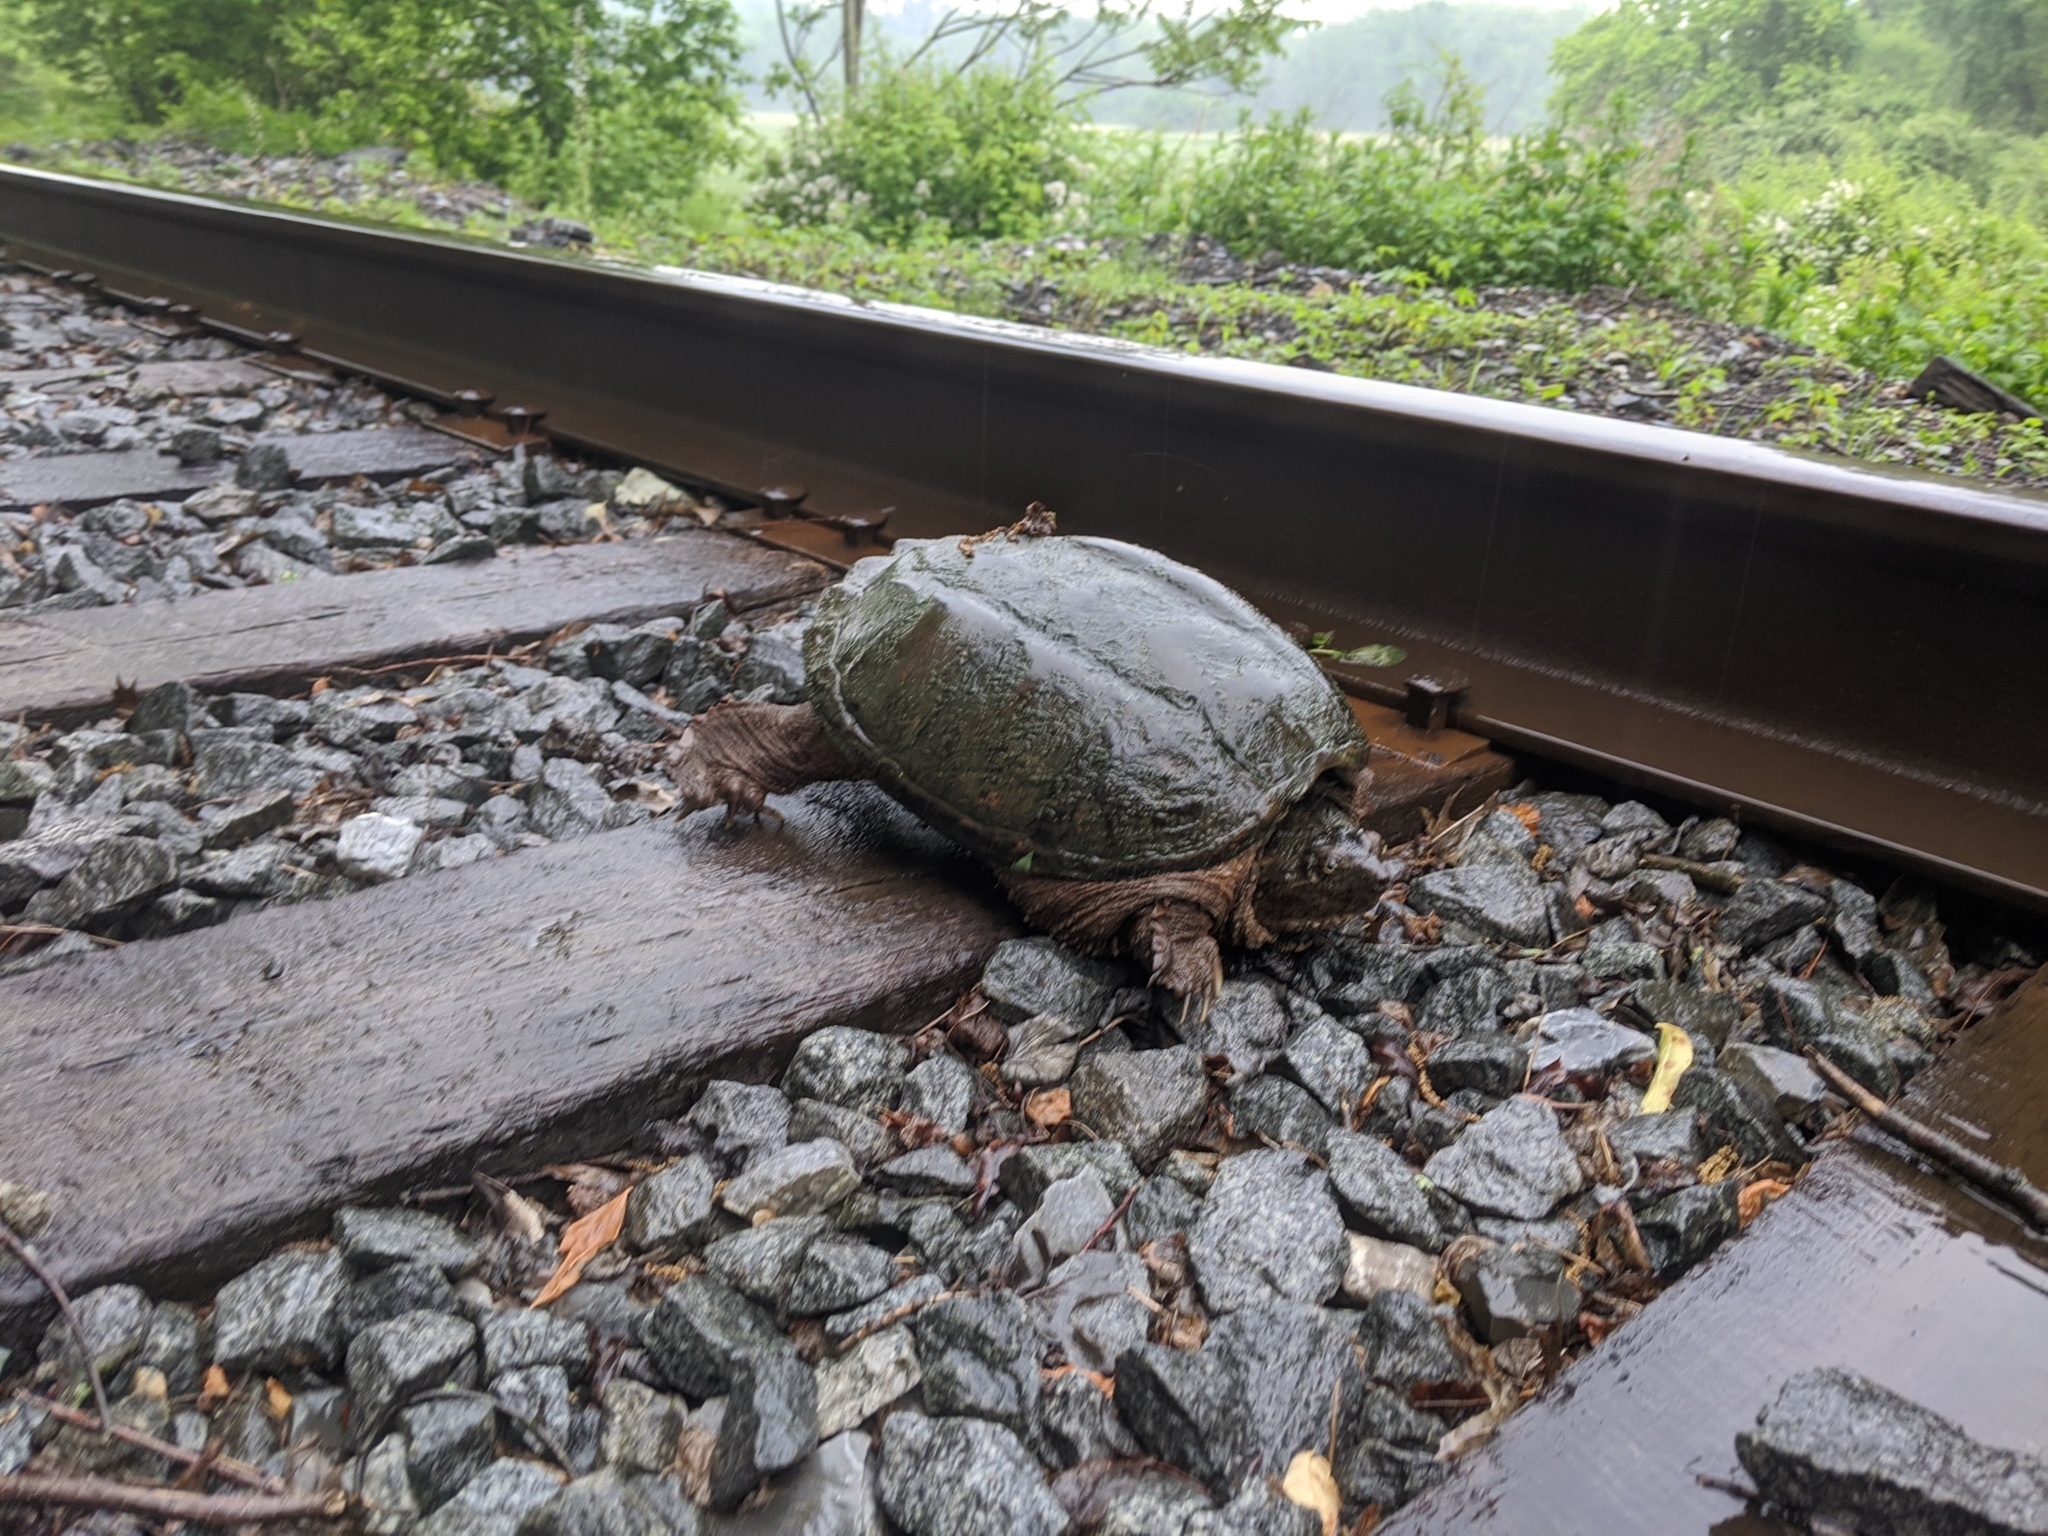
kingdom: Animalia
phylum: Chordata
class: Testudines
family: Chelydridae
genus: Chelydra
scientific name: Chelydra serpentina
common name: Common snapping turtle
